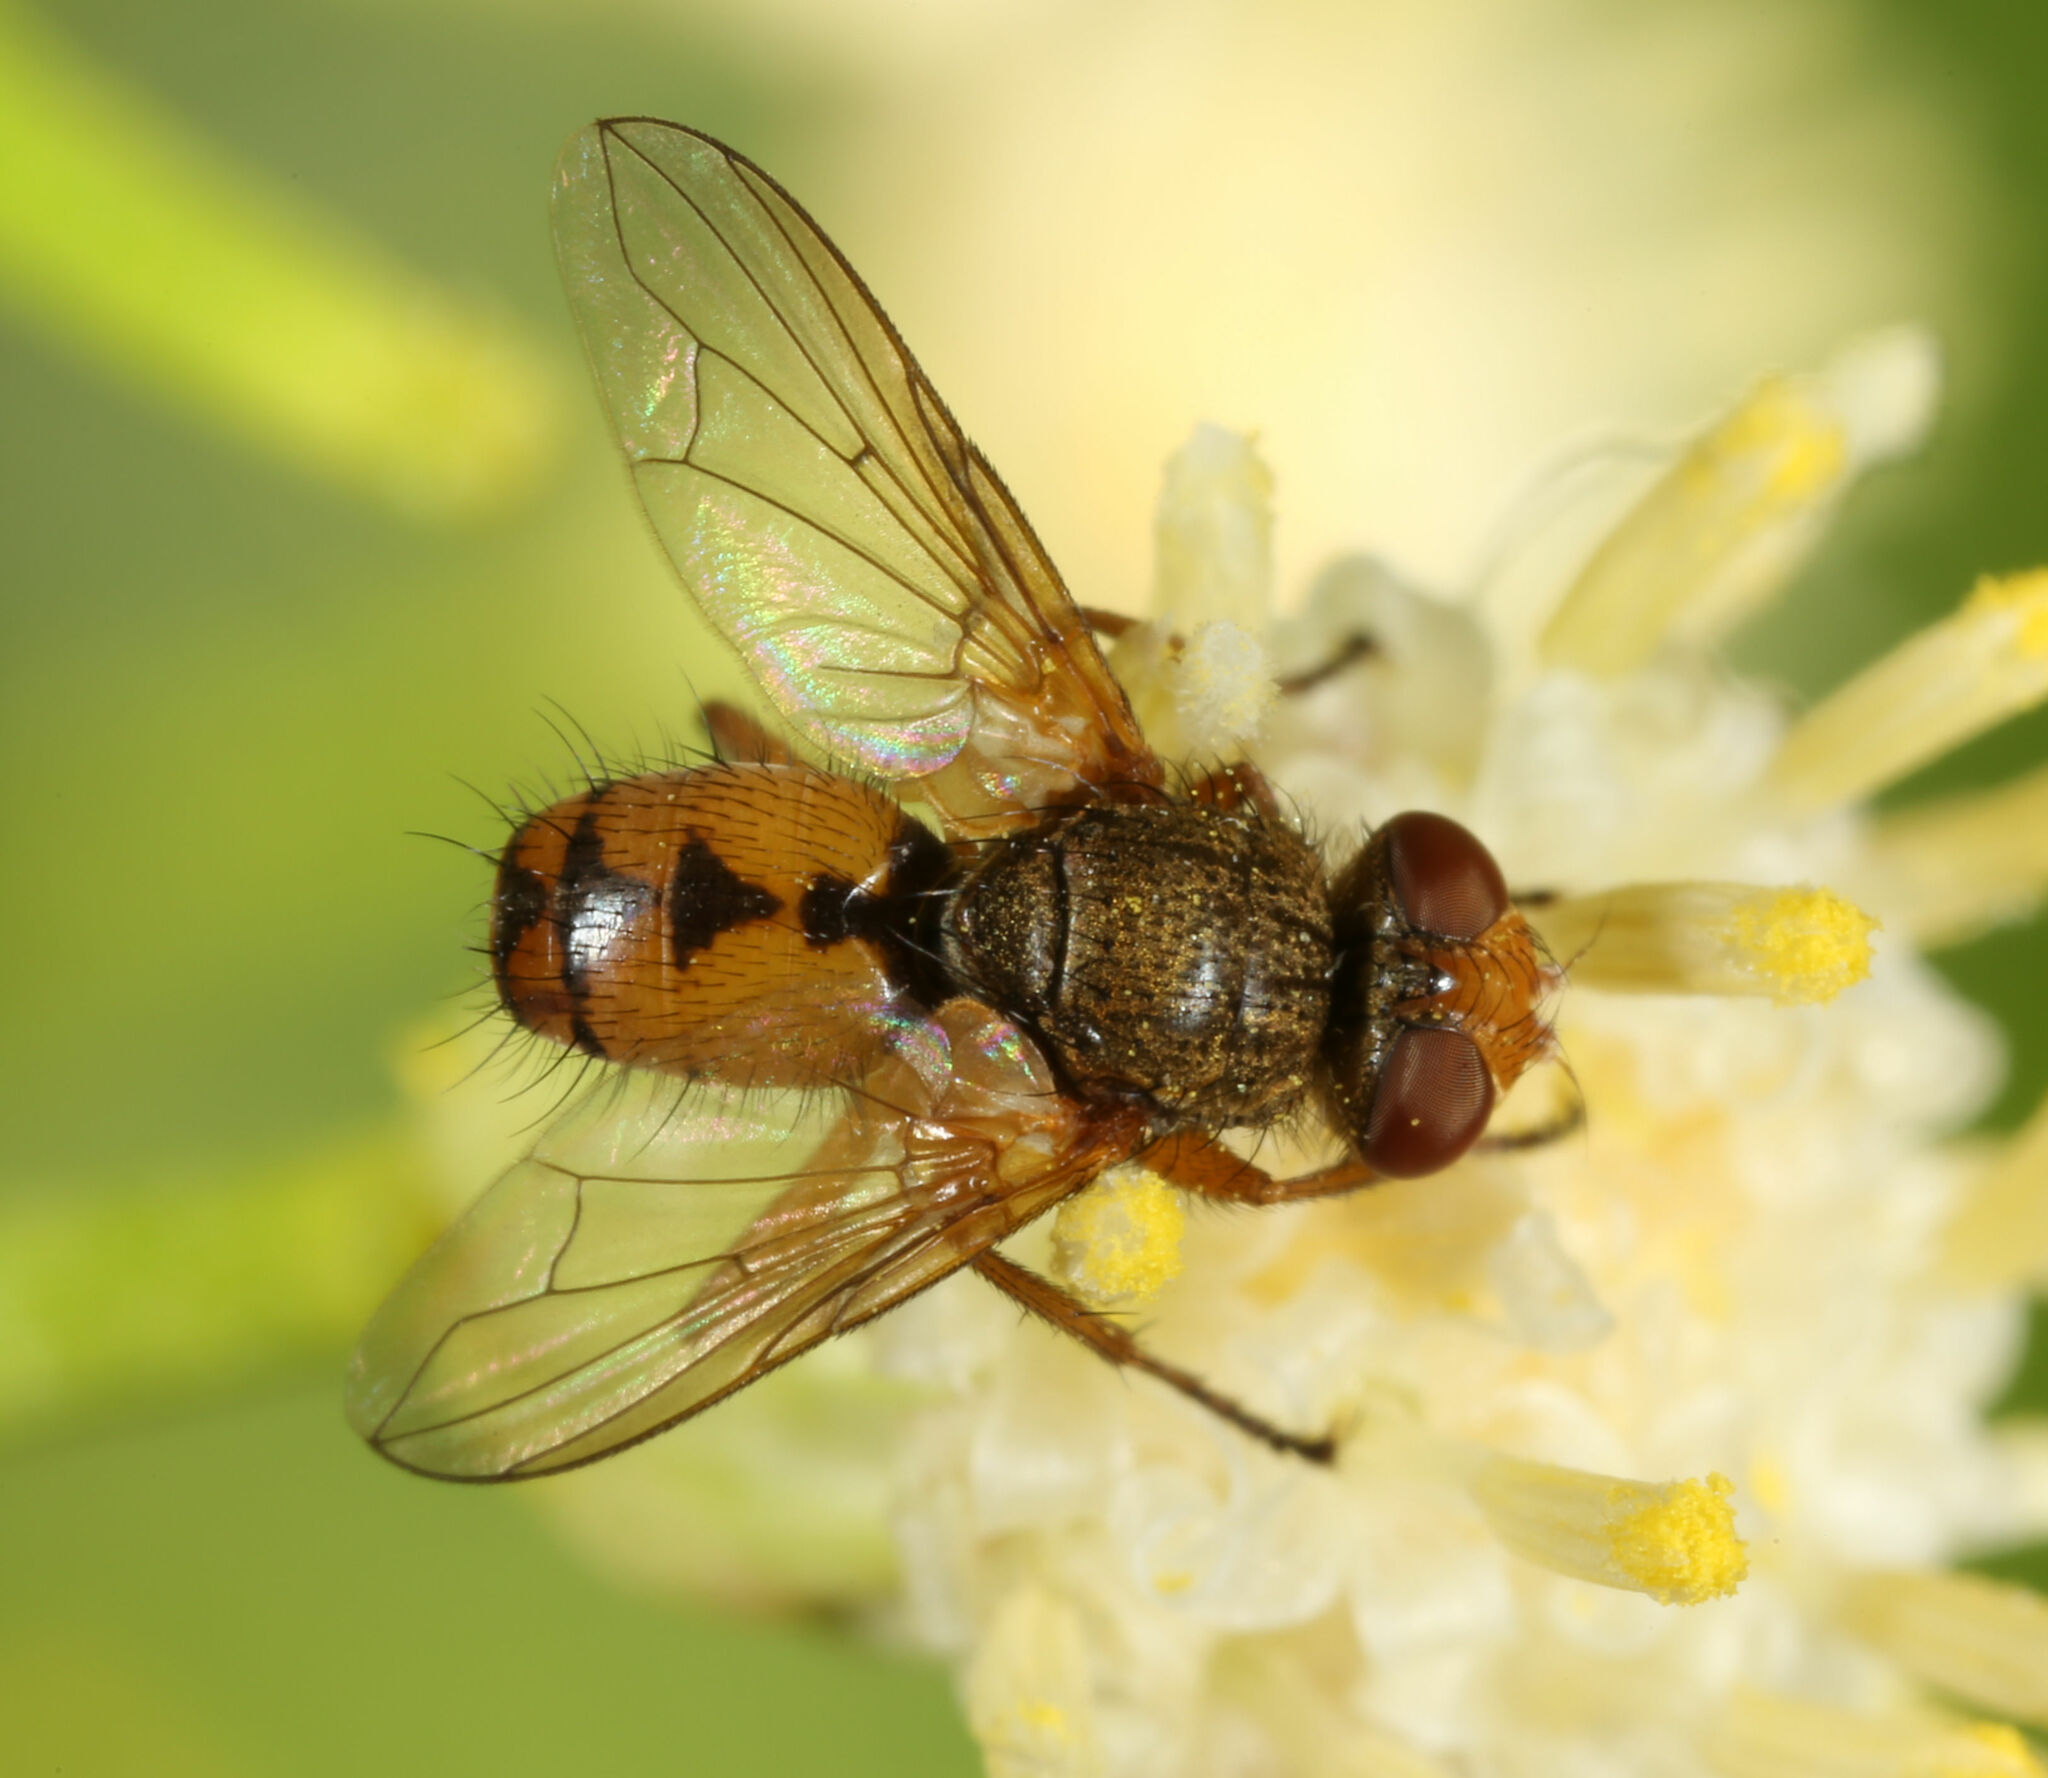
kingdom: Animalia
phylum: Arthropoda
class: Insecta
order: Diptera
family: Tachinidae
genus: Euclytia
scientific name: Euclytia flava
